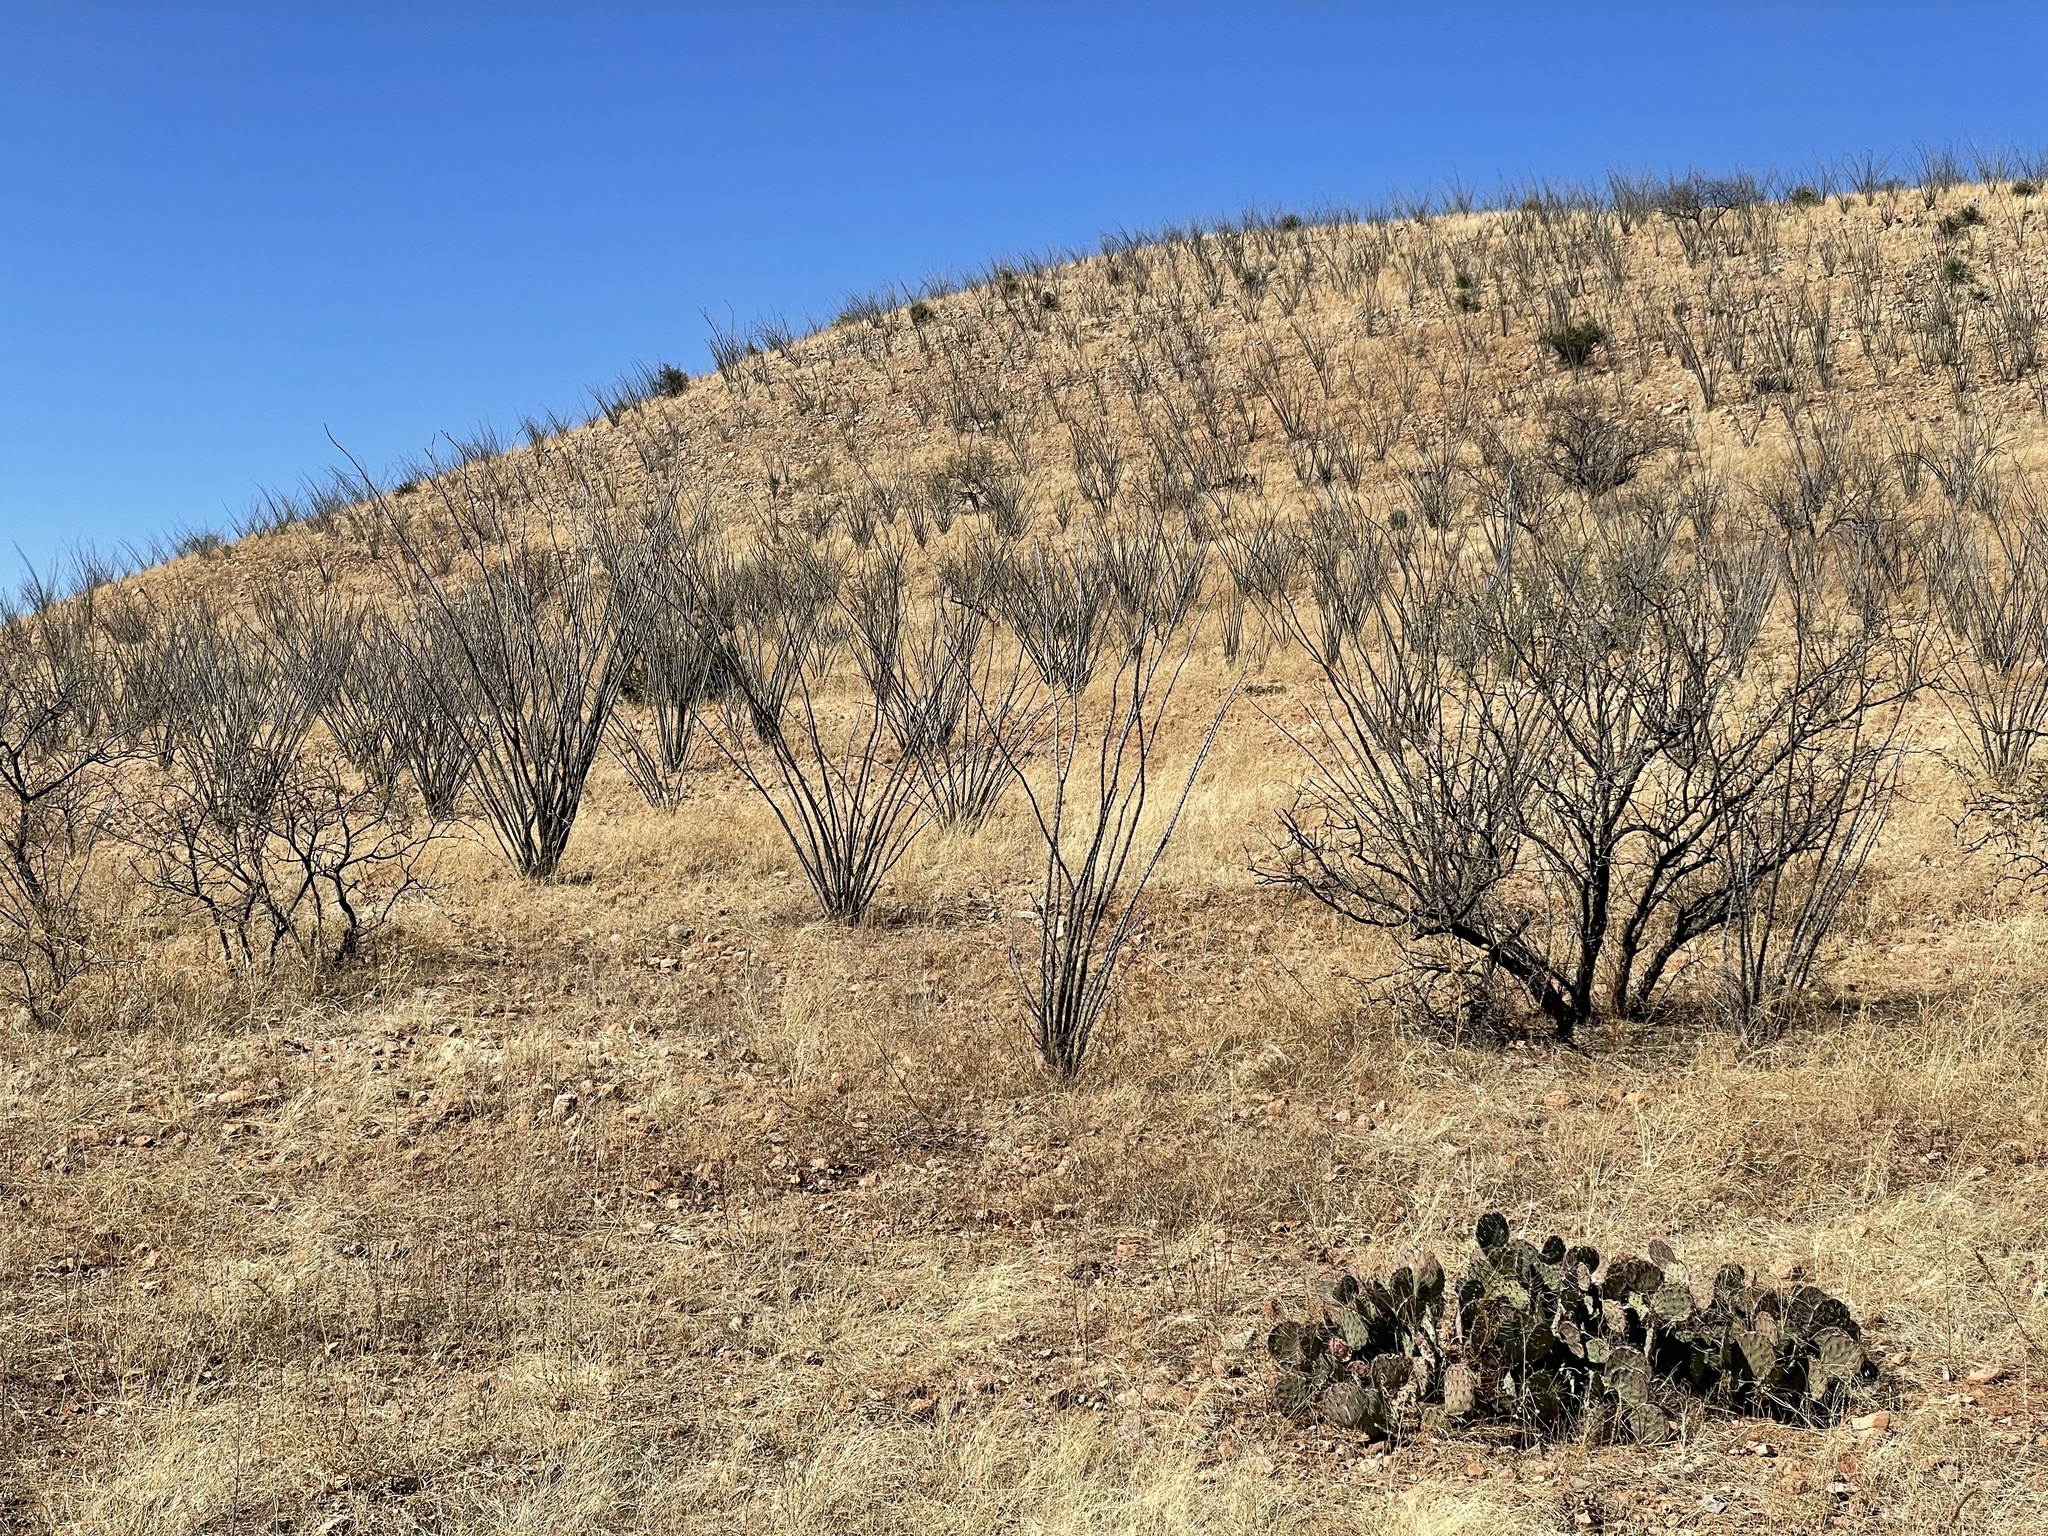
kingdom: Plantae
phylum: Tracheophyta
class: Magnoliopsida
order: Ericales
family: Fouquieriaceae
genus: Fouquieria
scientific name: Fouquieria splendens
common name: Vine-cactus
